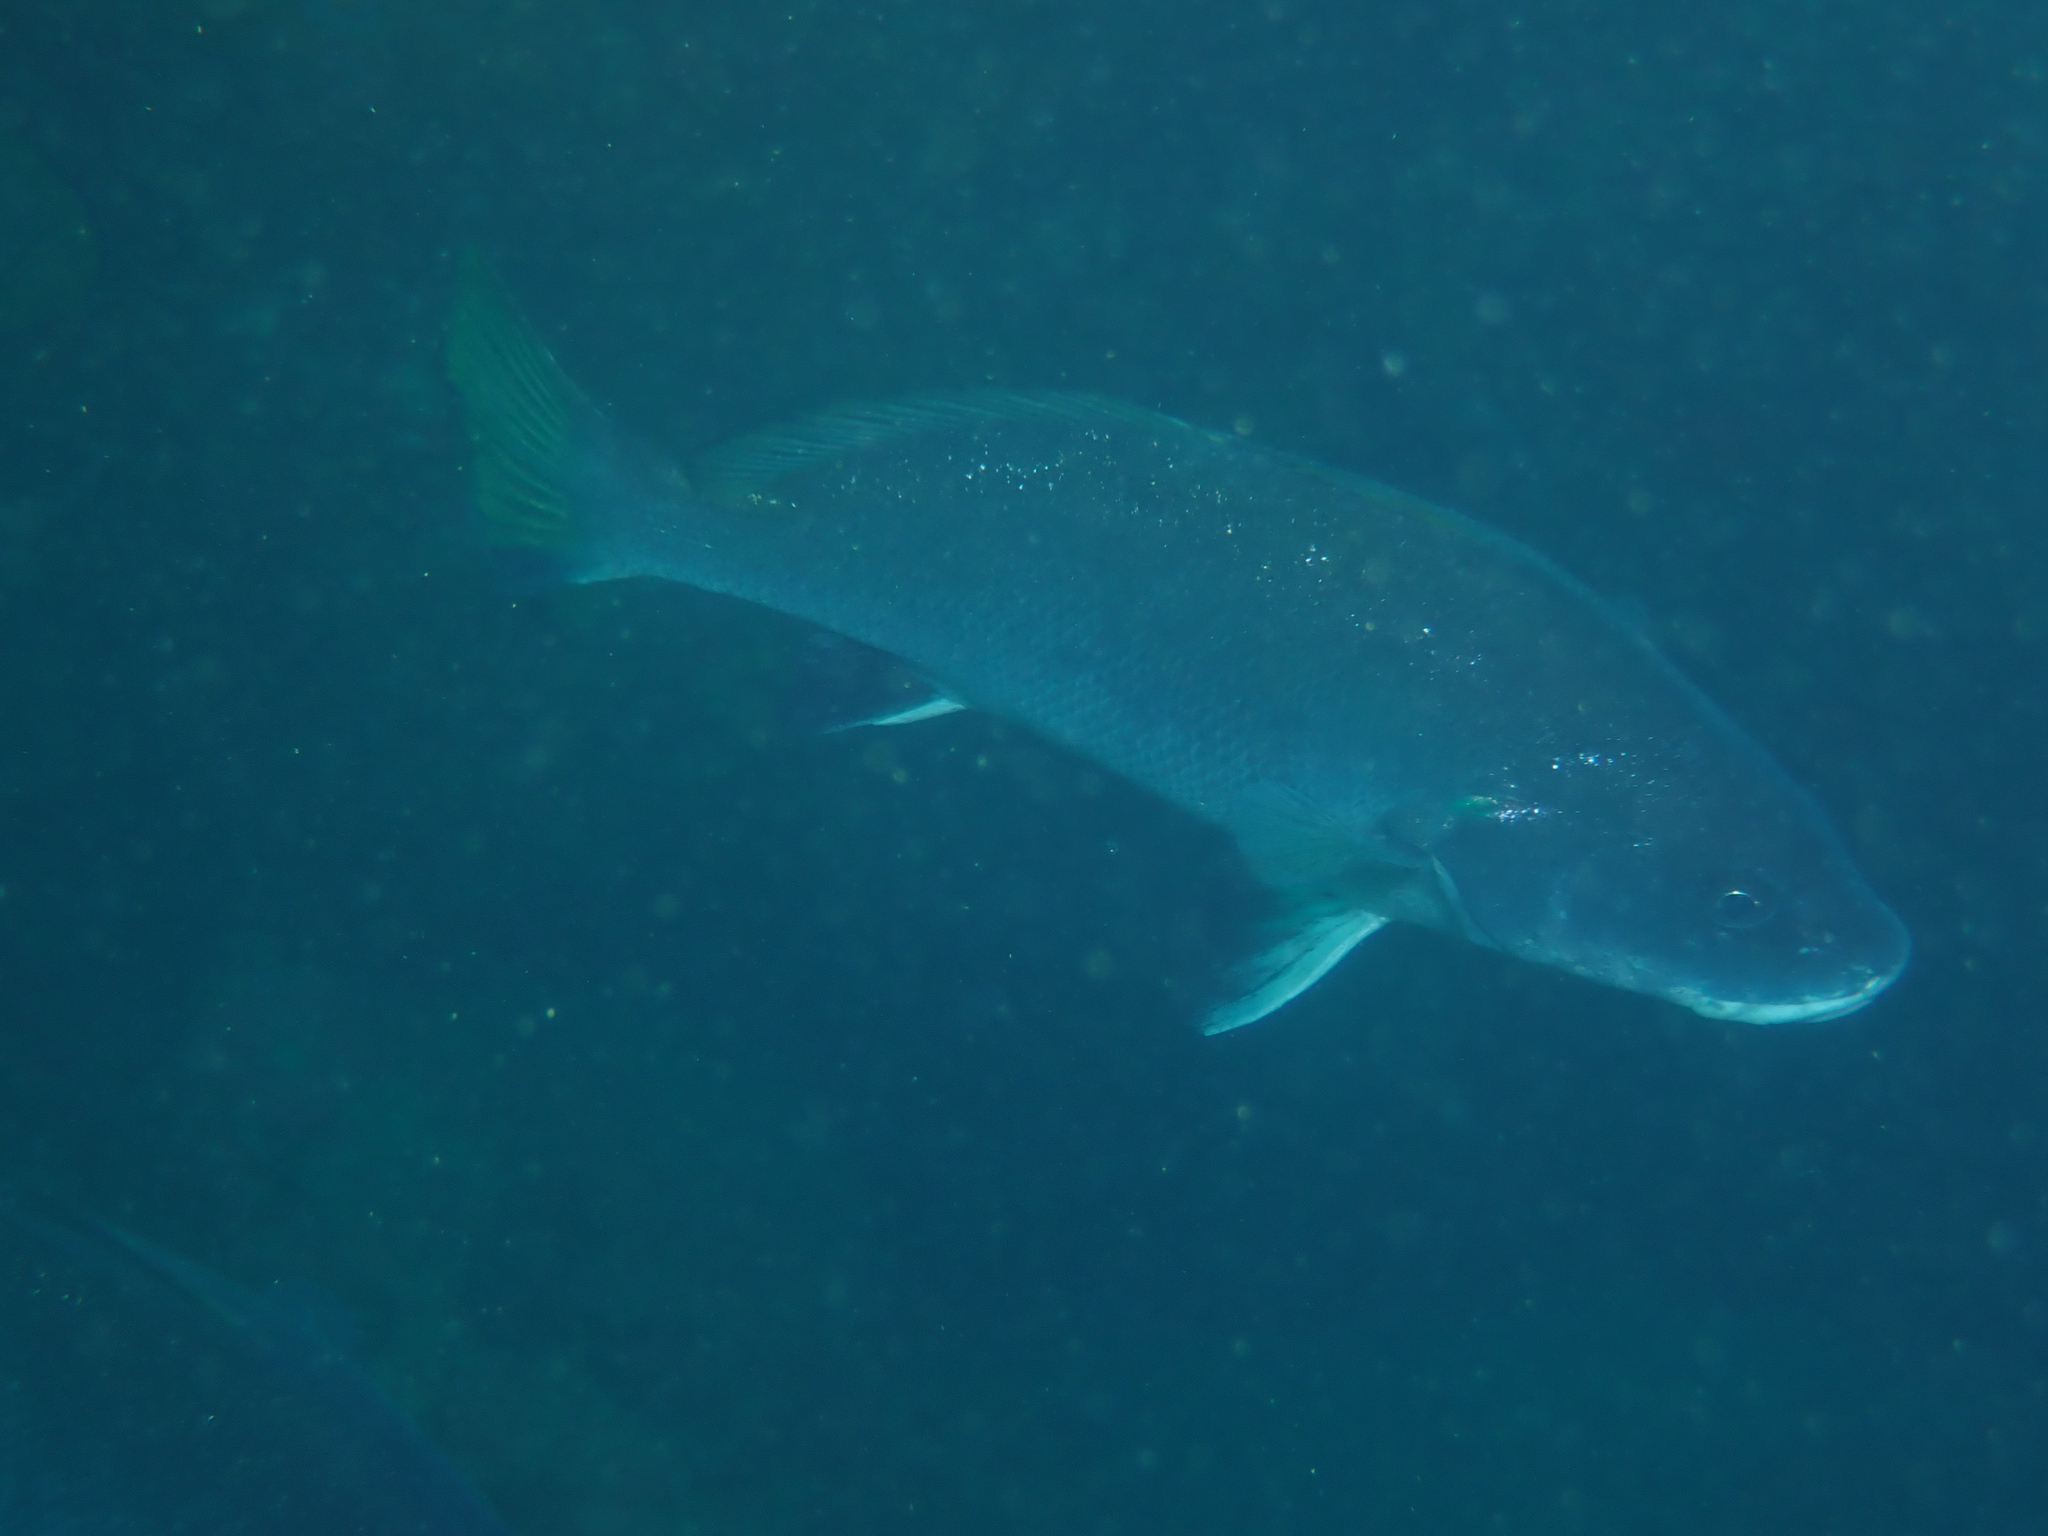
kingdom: Animalia
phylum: Chordata
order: Perciformes
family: Sciaenidae
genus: Sciaena
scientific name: Sciaena umbra
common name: Brown meagre
